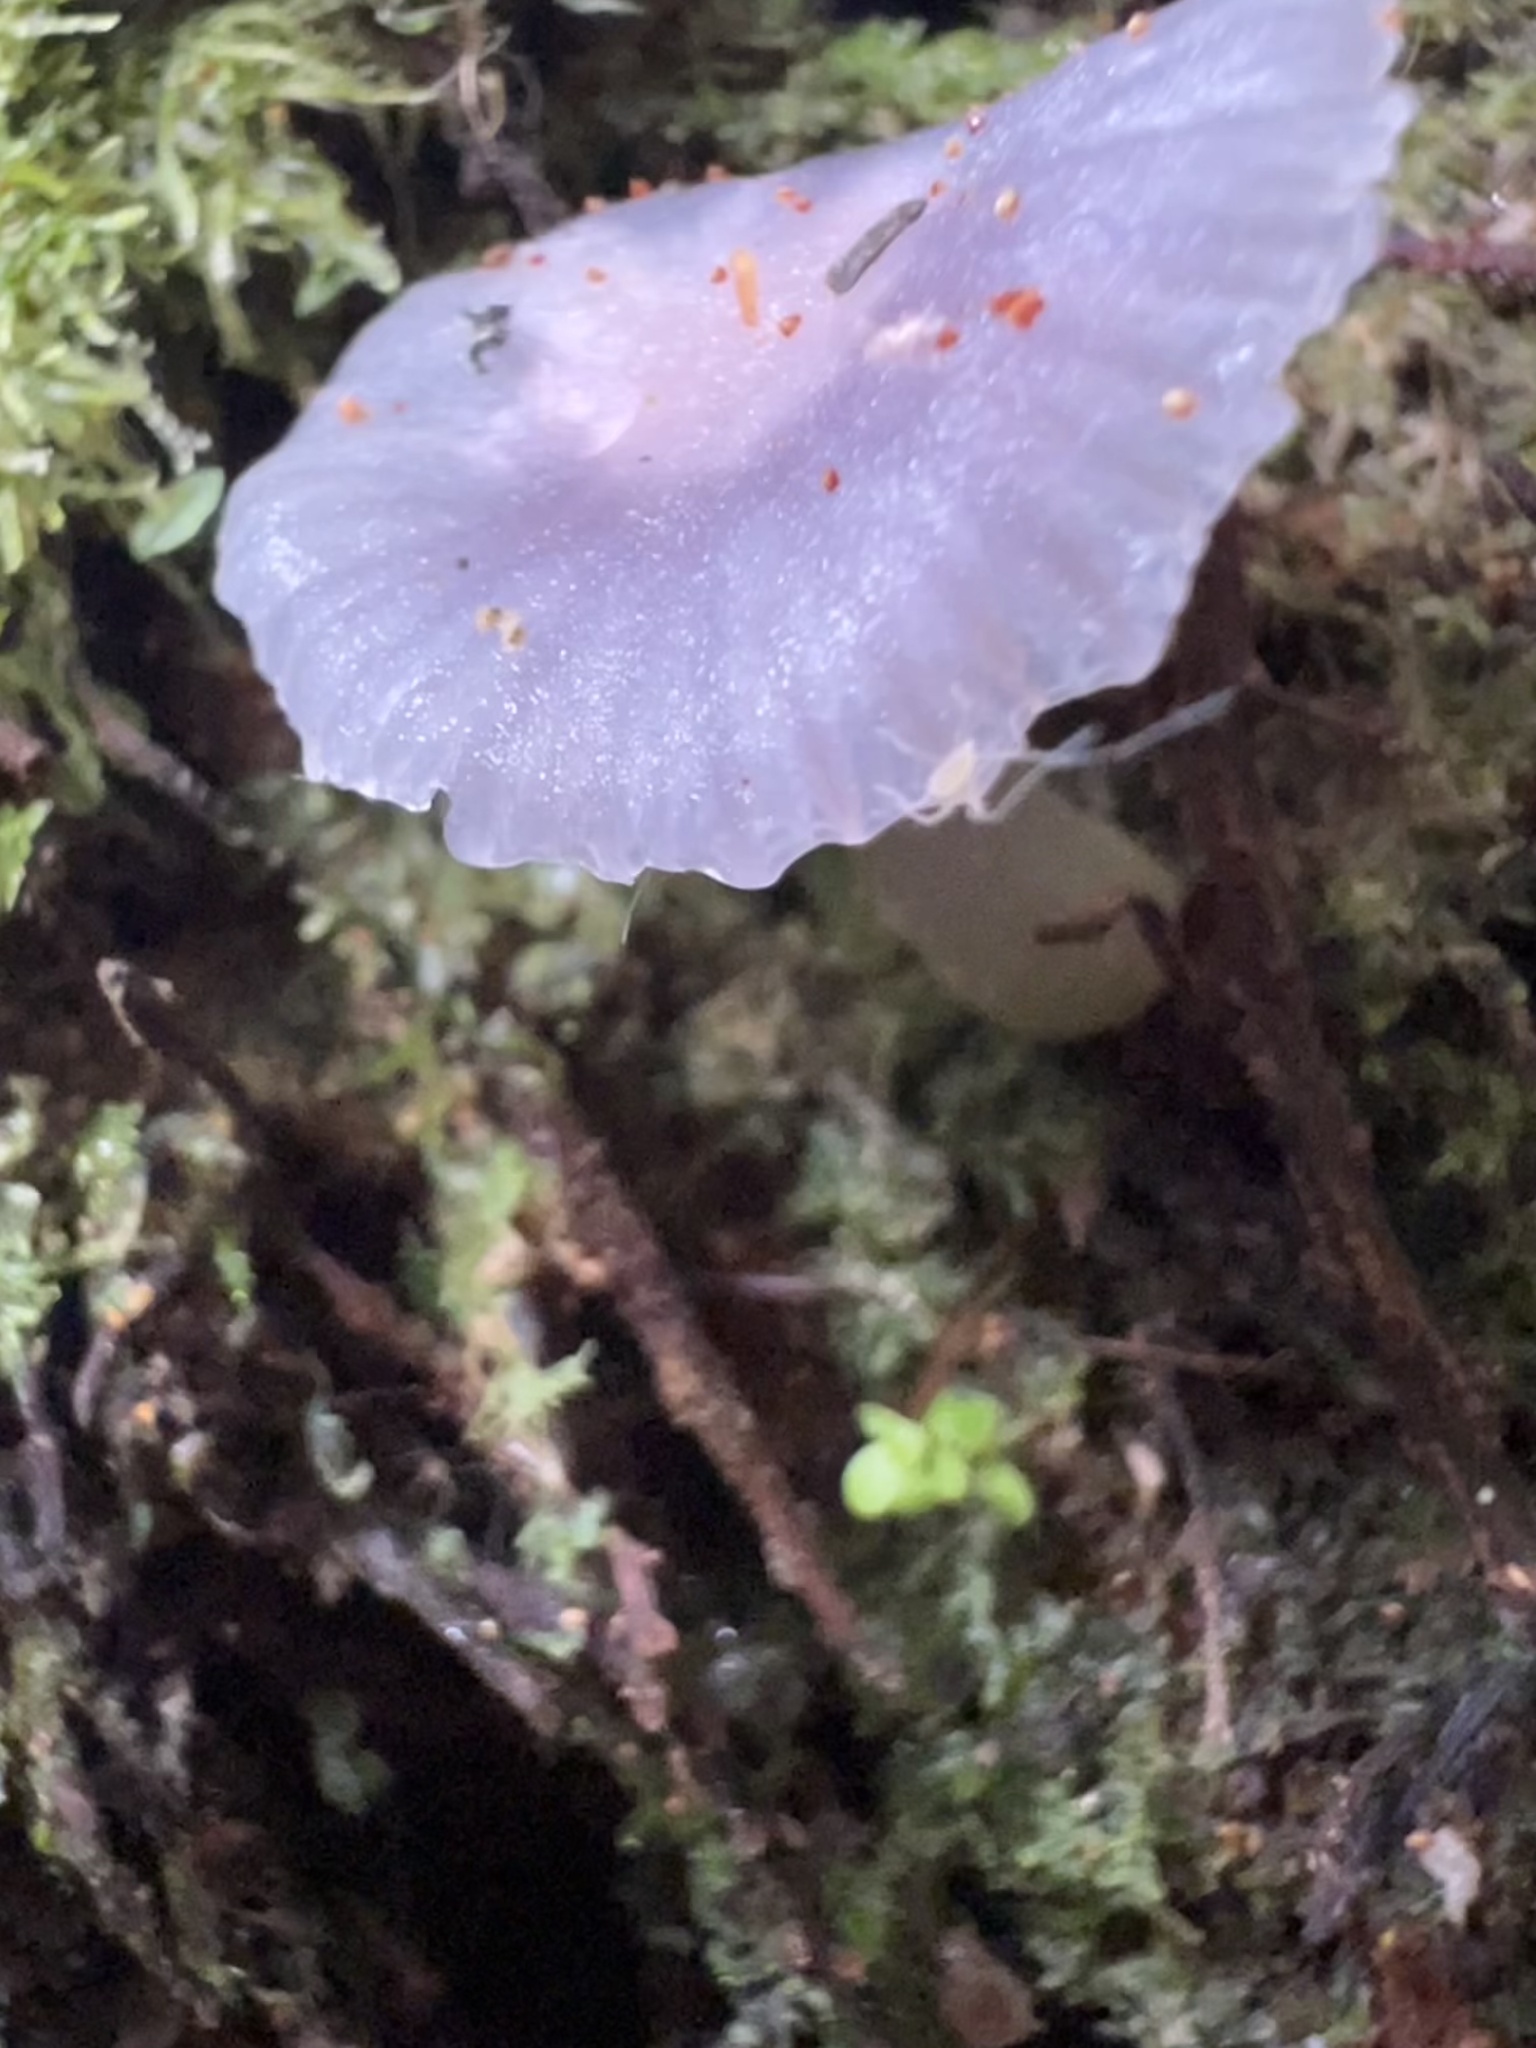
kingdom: Fungi
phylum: Basidiomycota
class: Agaricomycetes
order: Agaricales
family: Hygrophoraceae
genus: Gliophorus
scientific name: Gliophorus lilacipes
